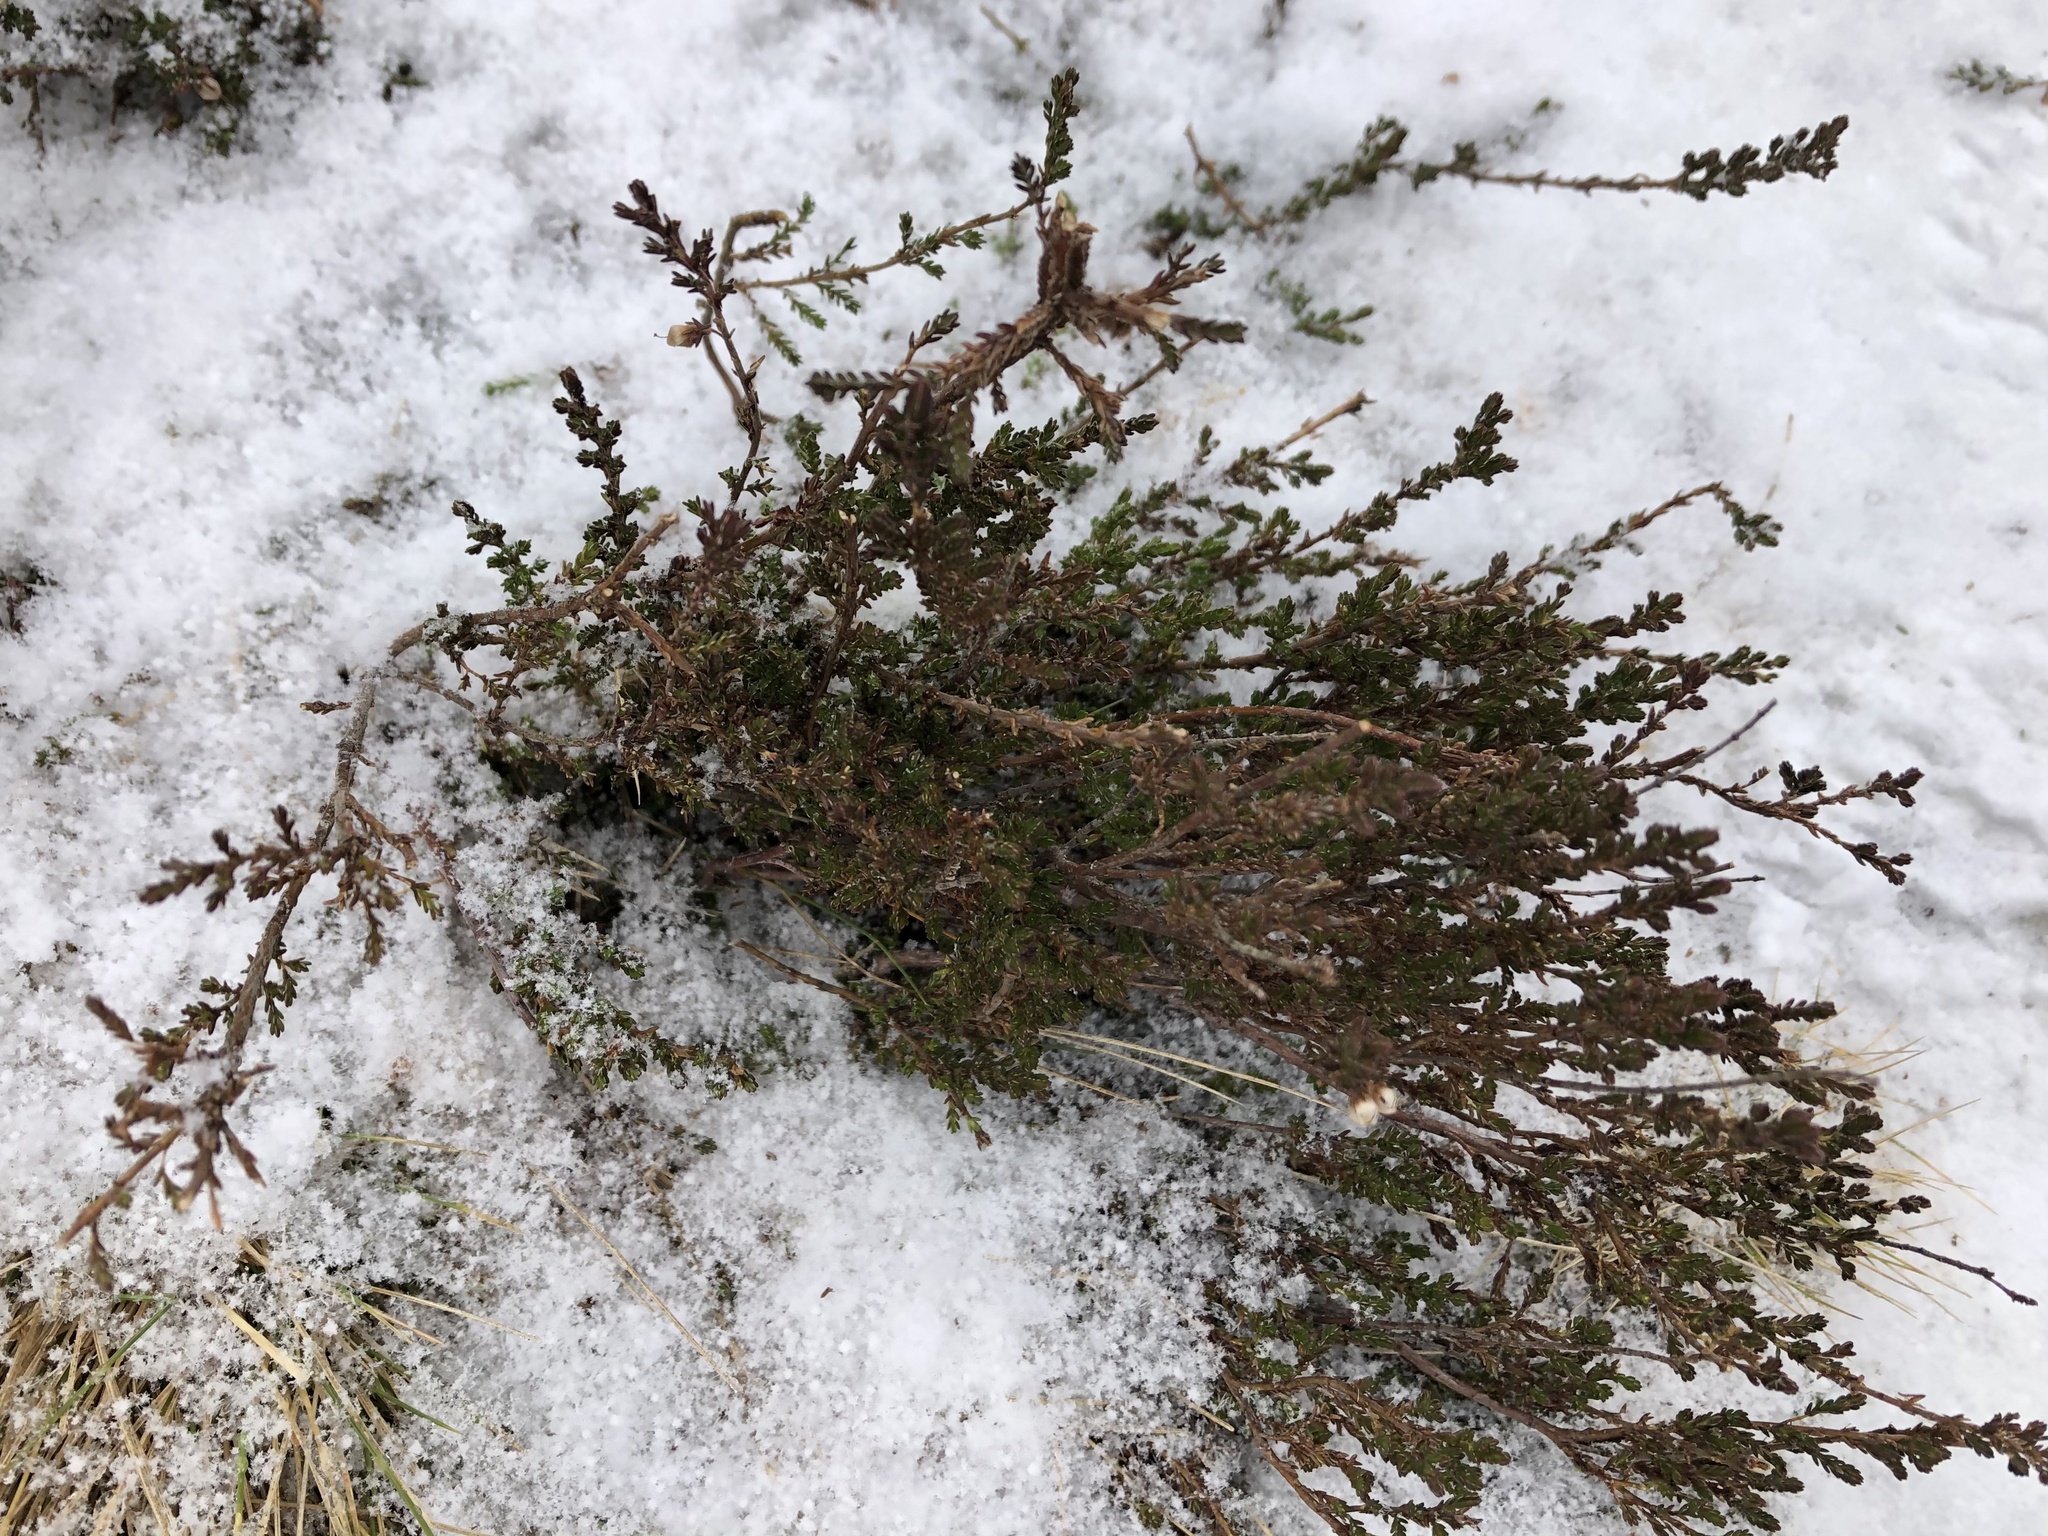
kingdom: Plantae
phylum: Tracheophyta
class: Magnoliopsida
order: Ericales
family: Ericaceae
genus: Calluna
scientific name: Calluna vulgaris
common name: Heather
